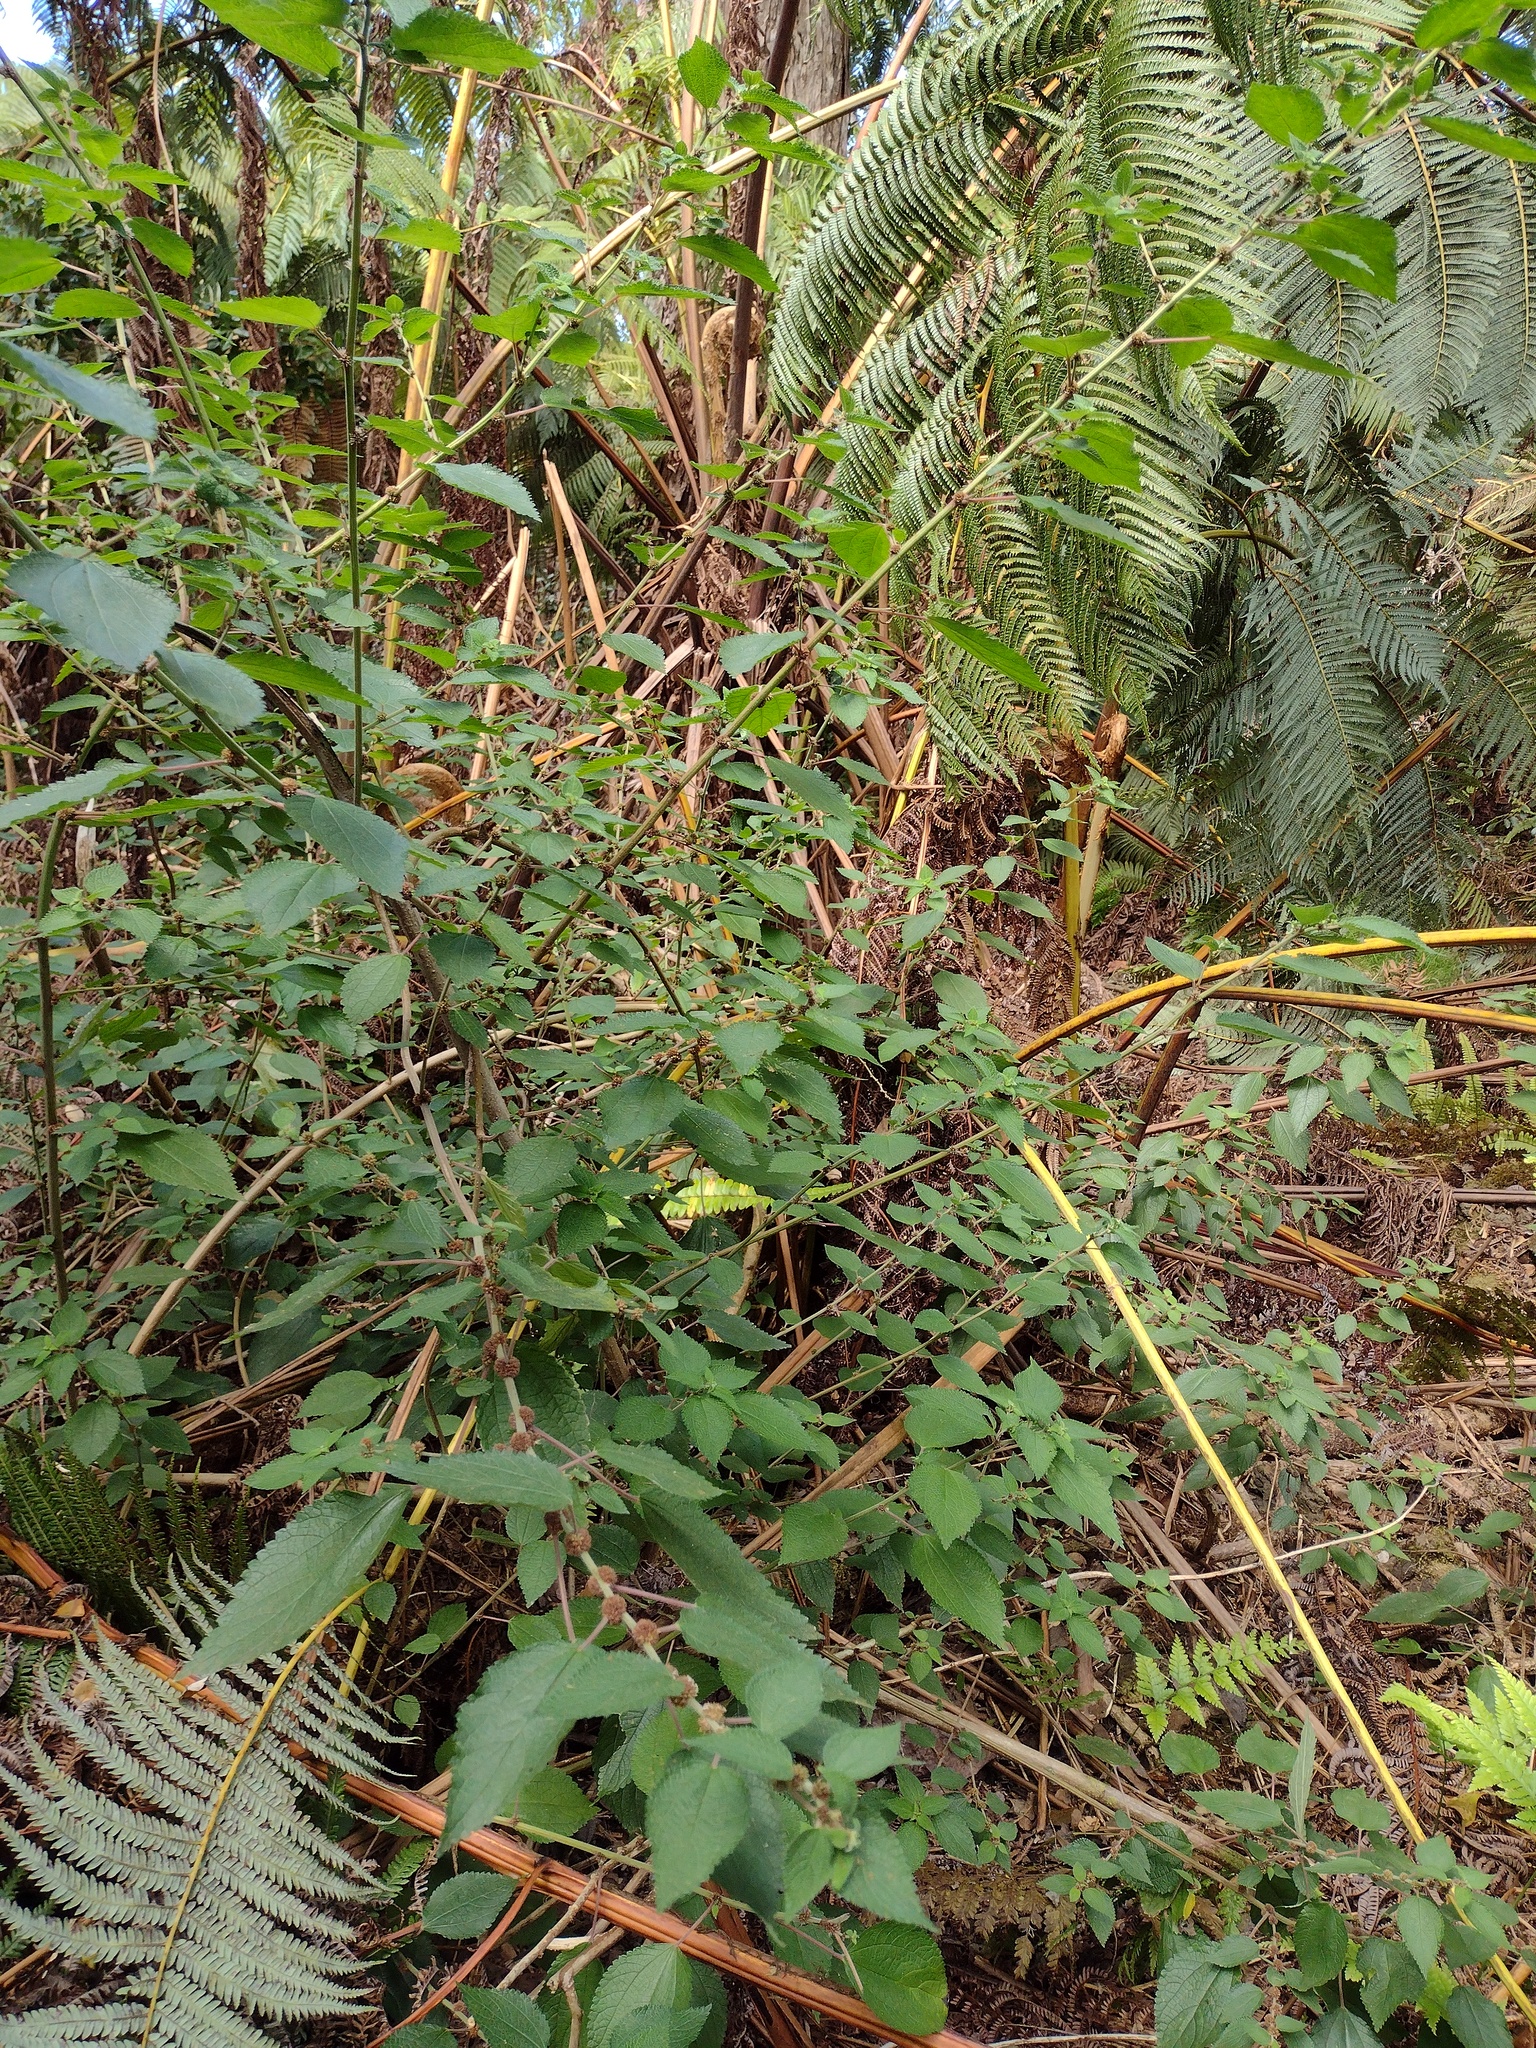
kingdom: Plantae
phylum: Tracheophyta
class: Magnoliopsida
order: Rosales
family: Urticaceae
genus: Phenax
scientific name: Phenax hirtus
